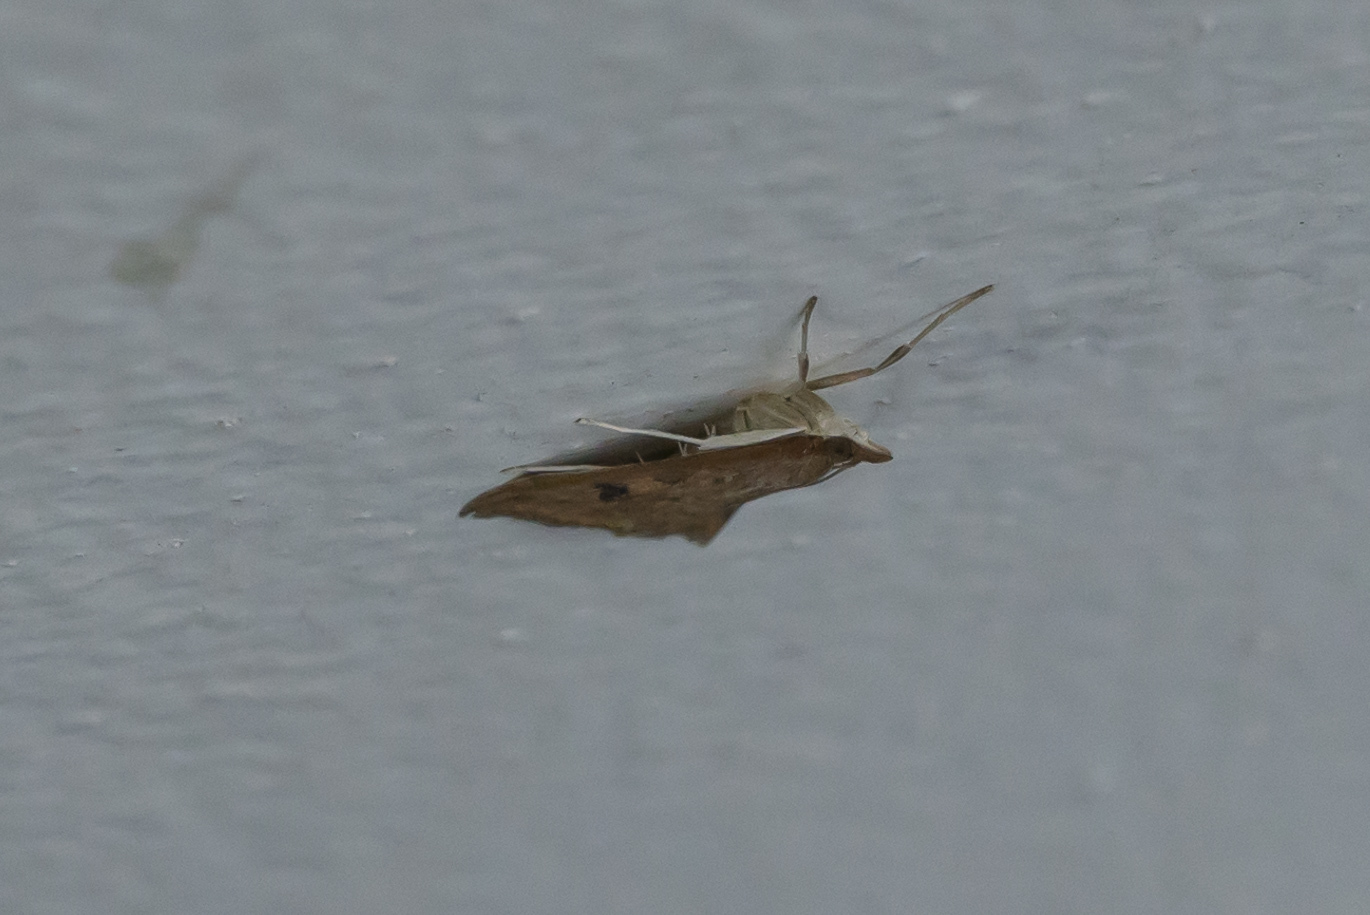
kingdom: Animalia
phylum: Arthropoda
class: Insecta
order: Lepidoptera
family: Crambidae
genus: Udea
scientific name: Udea ferrugalis
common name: Rusty dot
